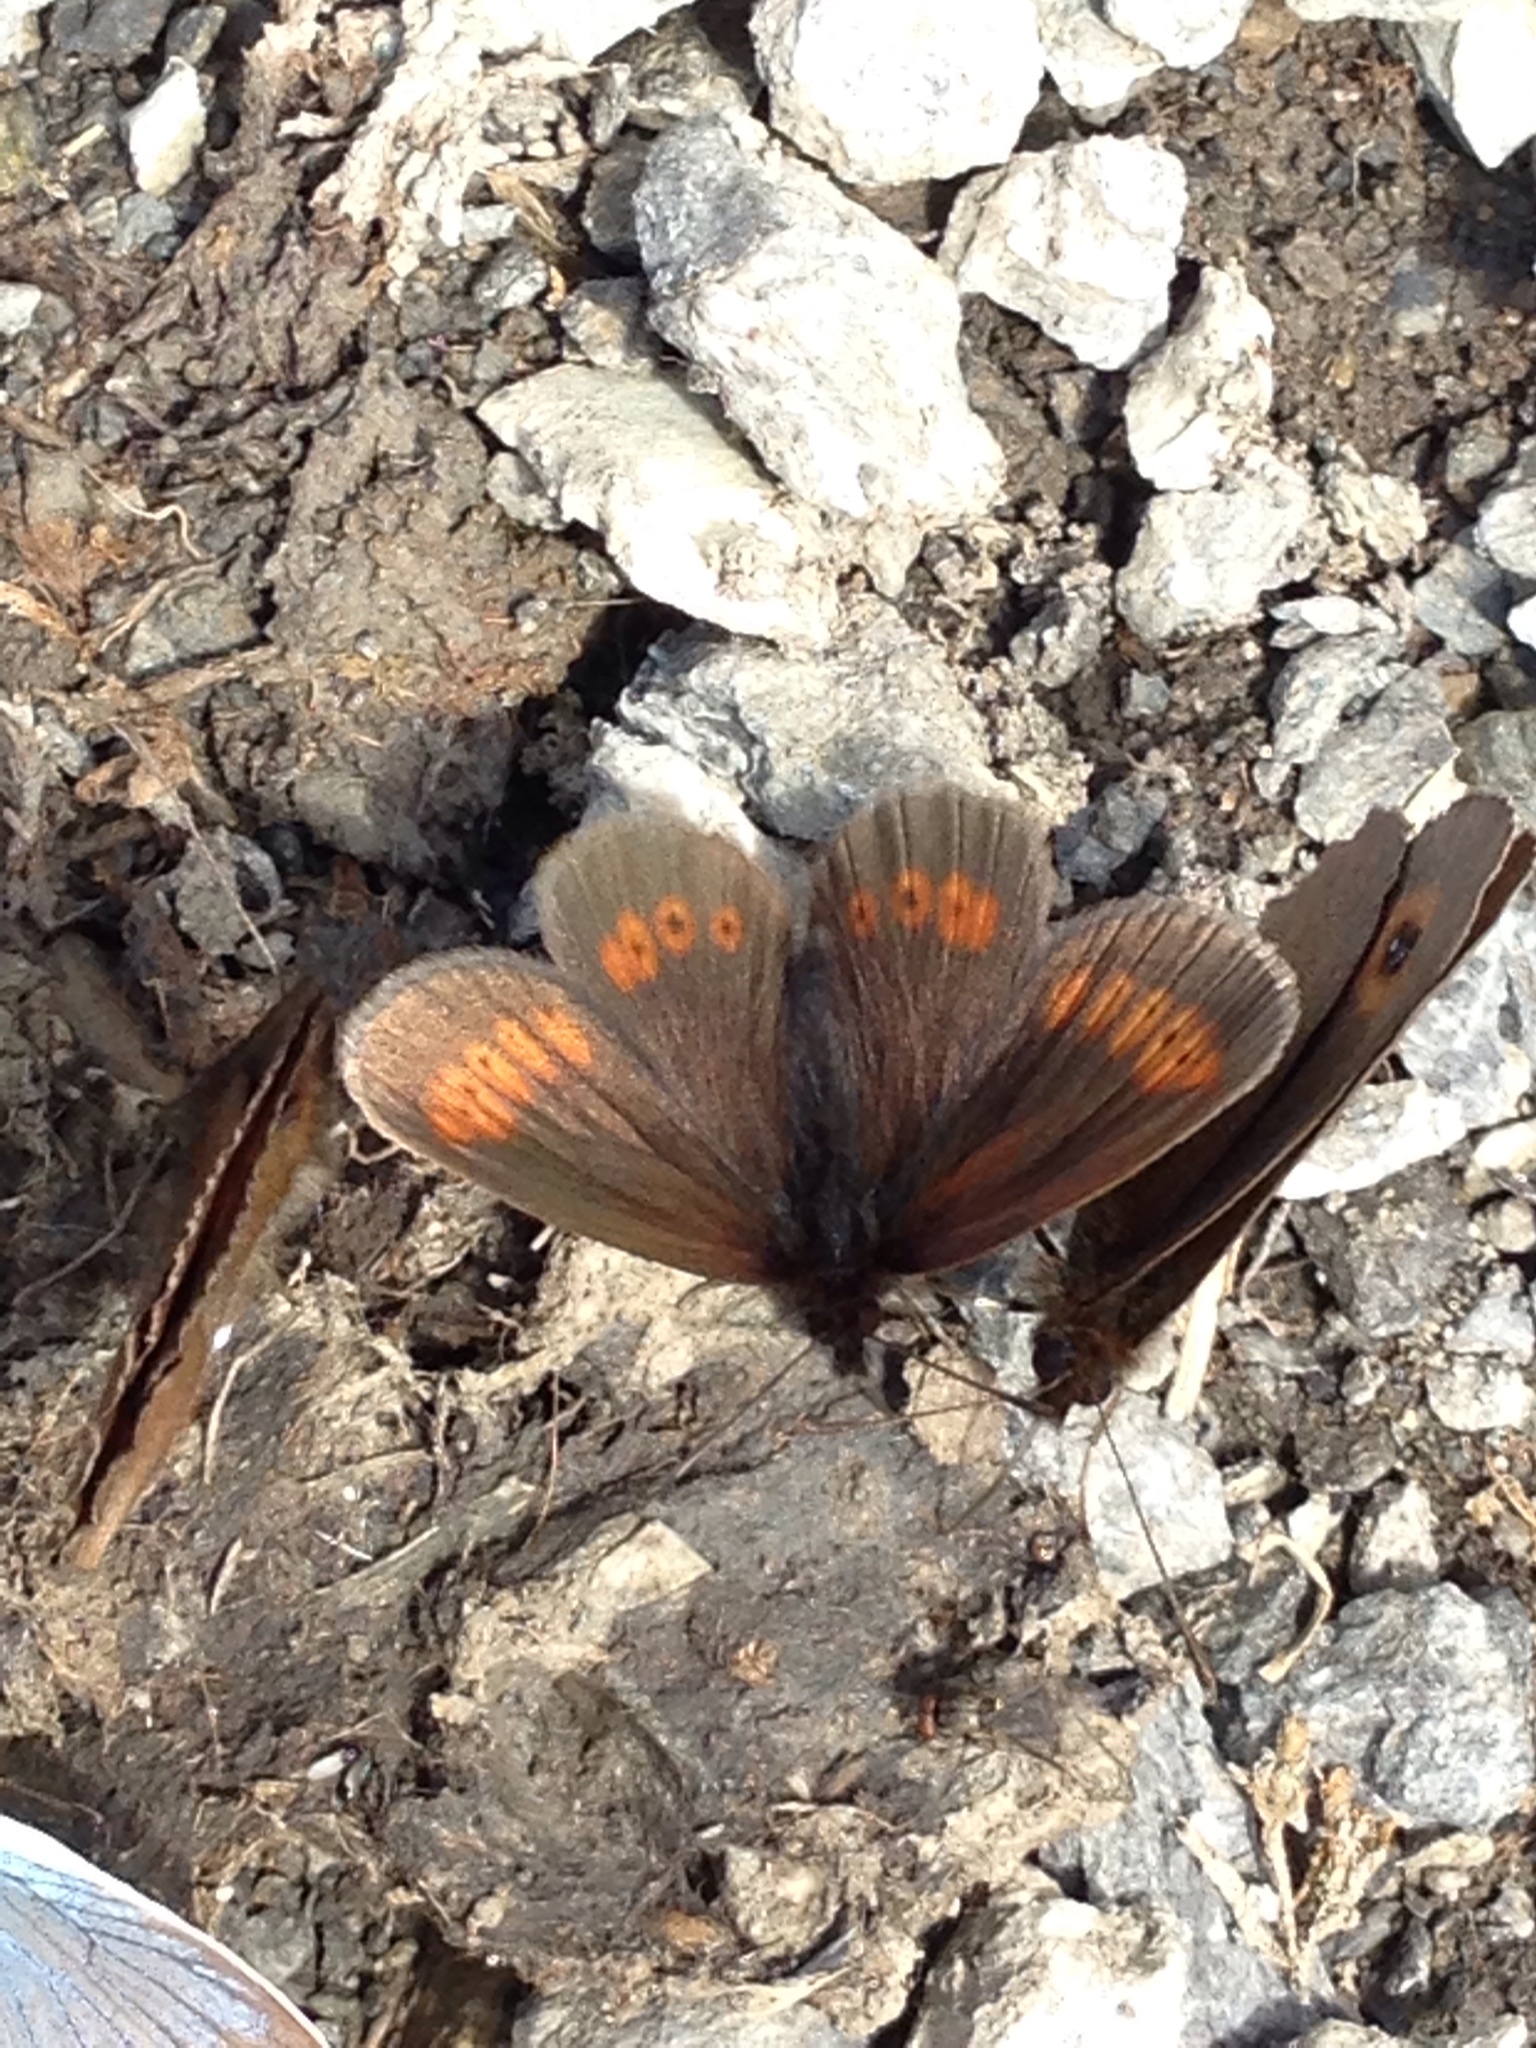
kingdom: Animalia
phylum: Arthropoda
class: Insecta
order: Lepidoptera
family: Nymphalidae
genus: Erebia
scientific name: Erebia melampus
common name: Lesser mountain ringlet
